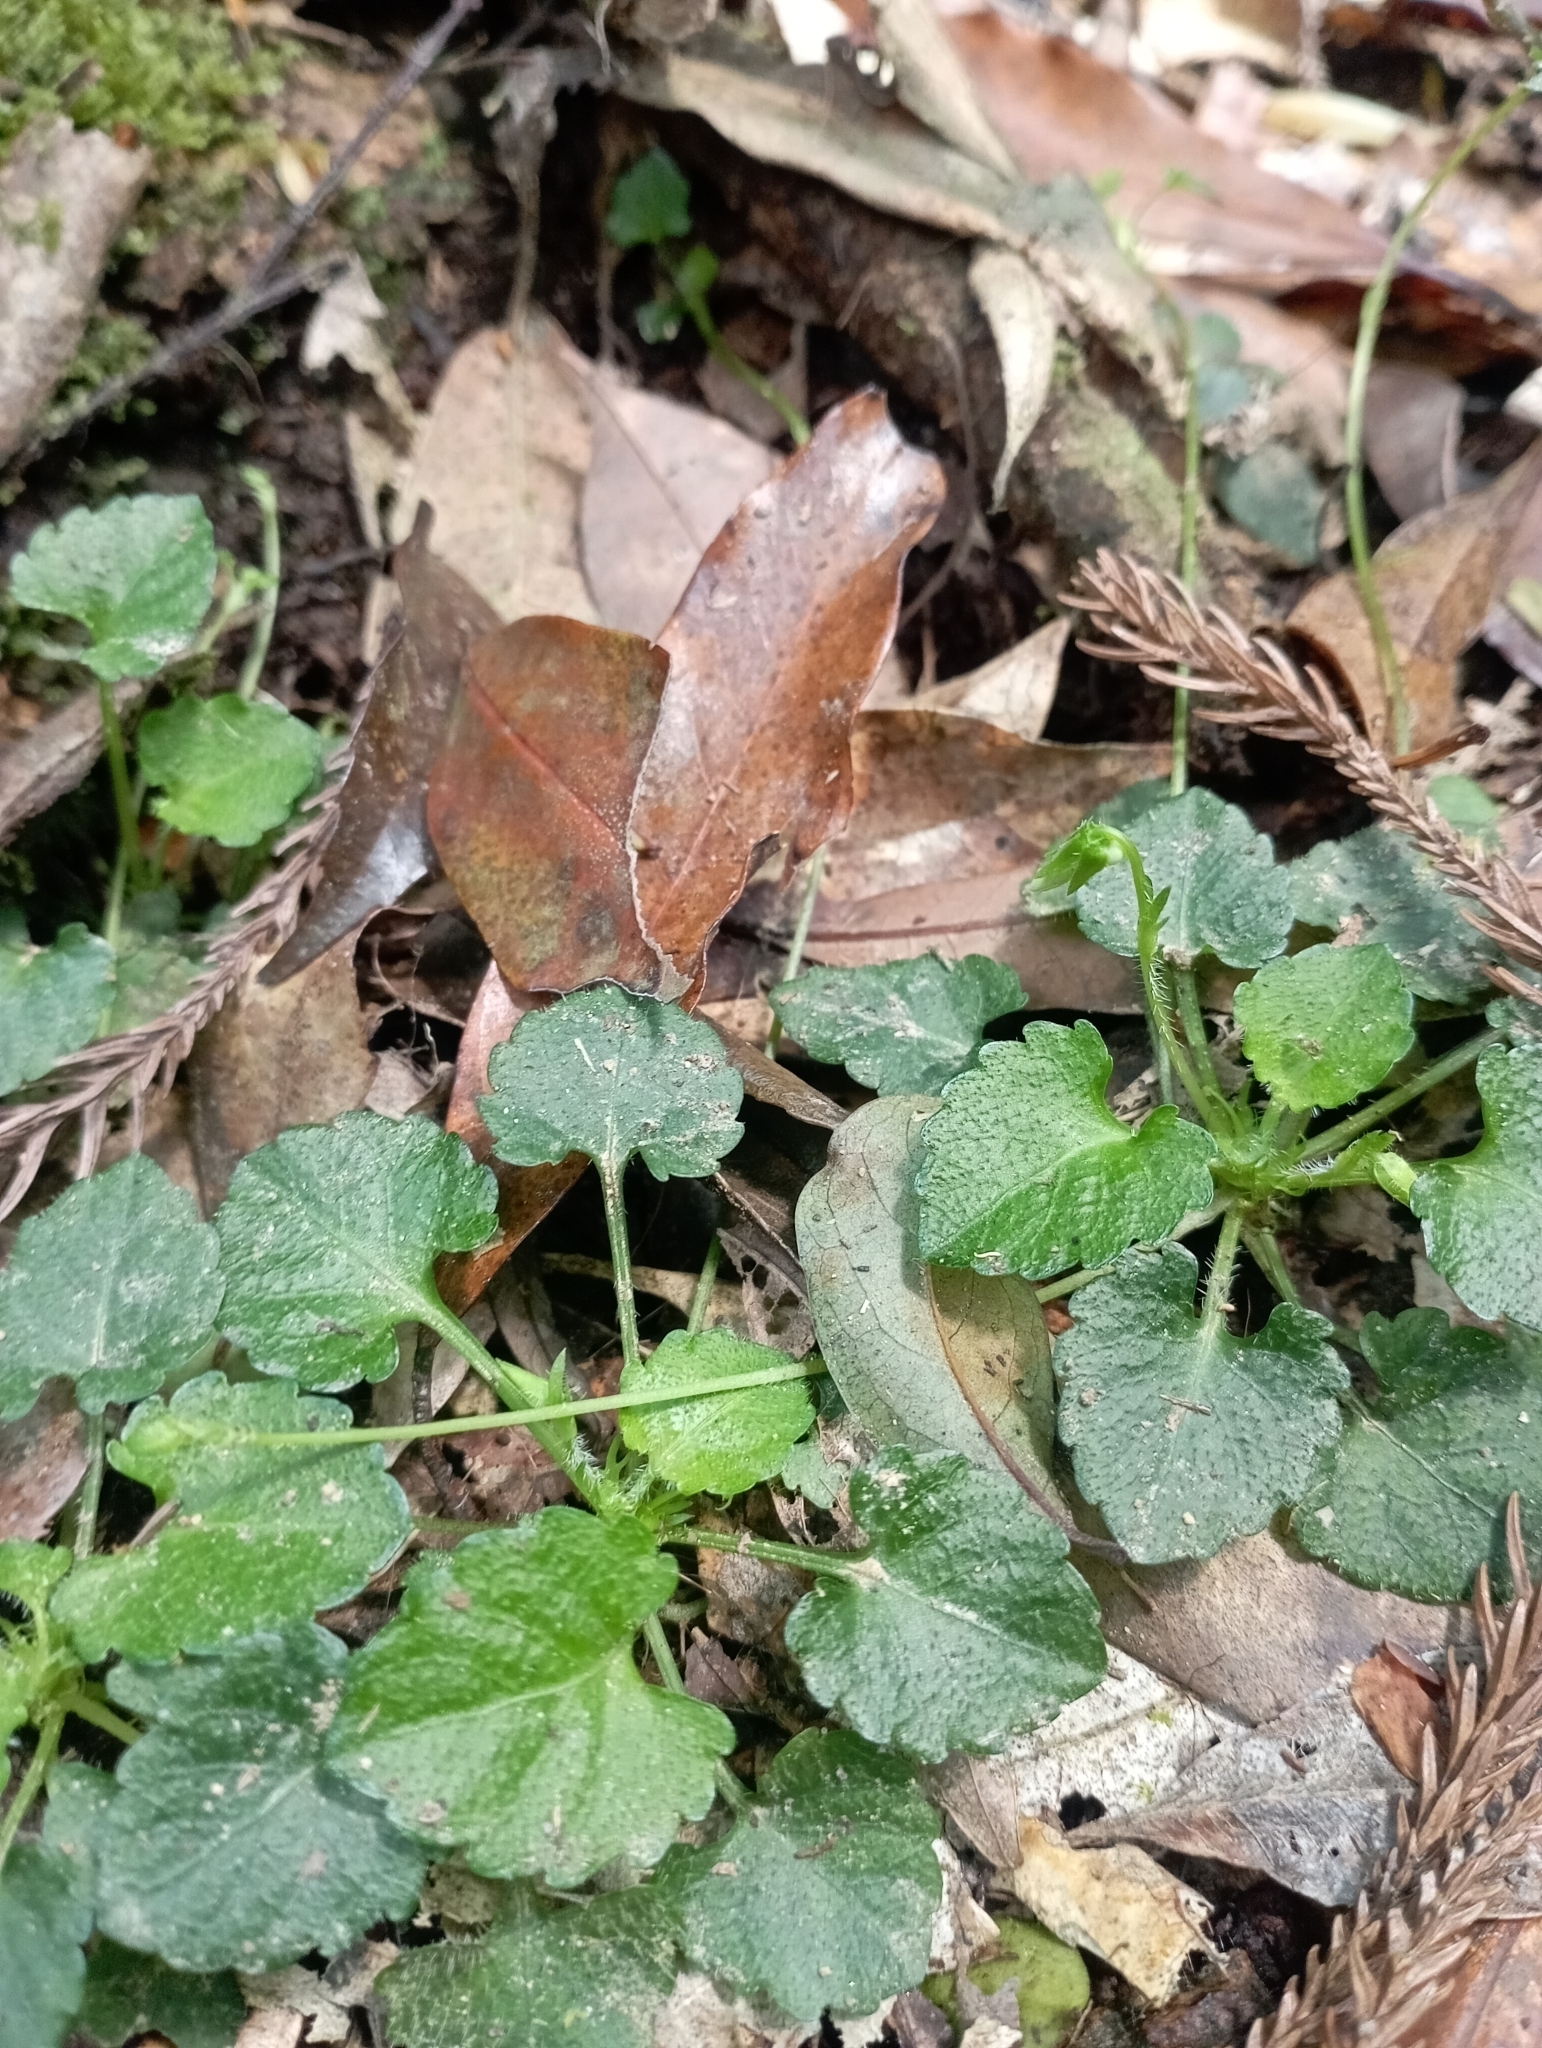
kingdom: Plantae
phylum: Tracheophyta
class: Magnoliopsida
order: Malpighiales
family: Violaceae
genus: Viola
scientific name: Viola nagasawae
